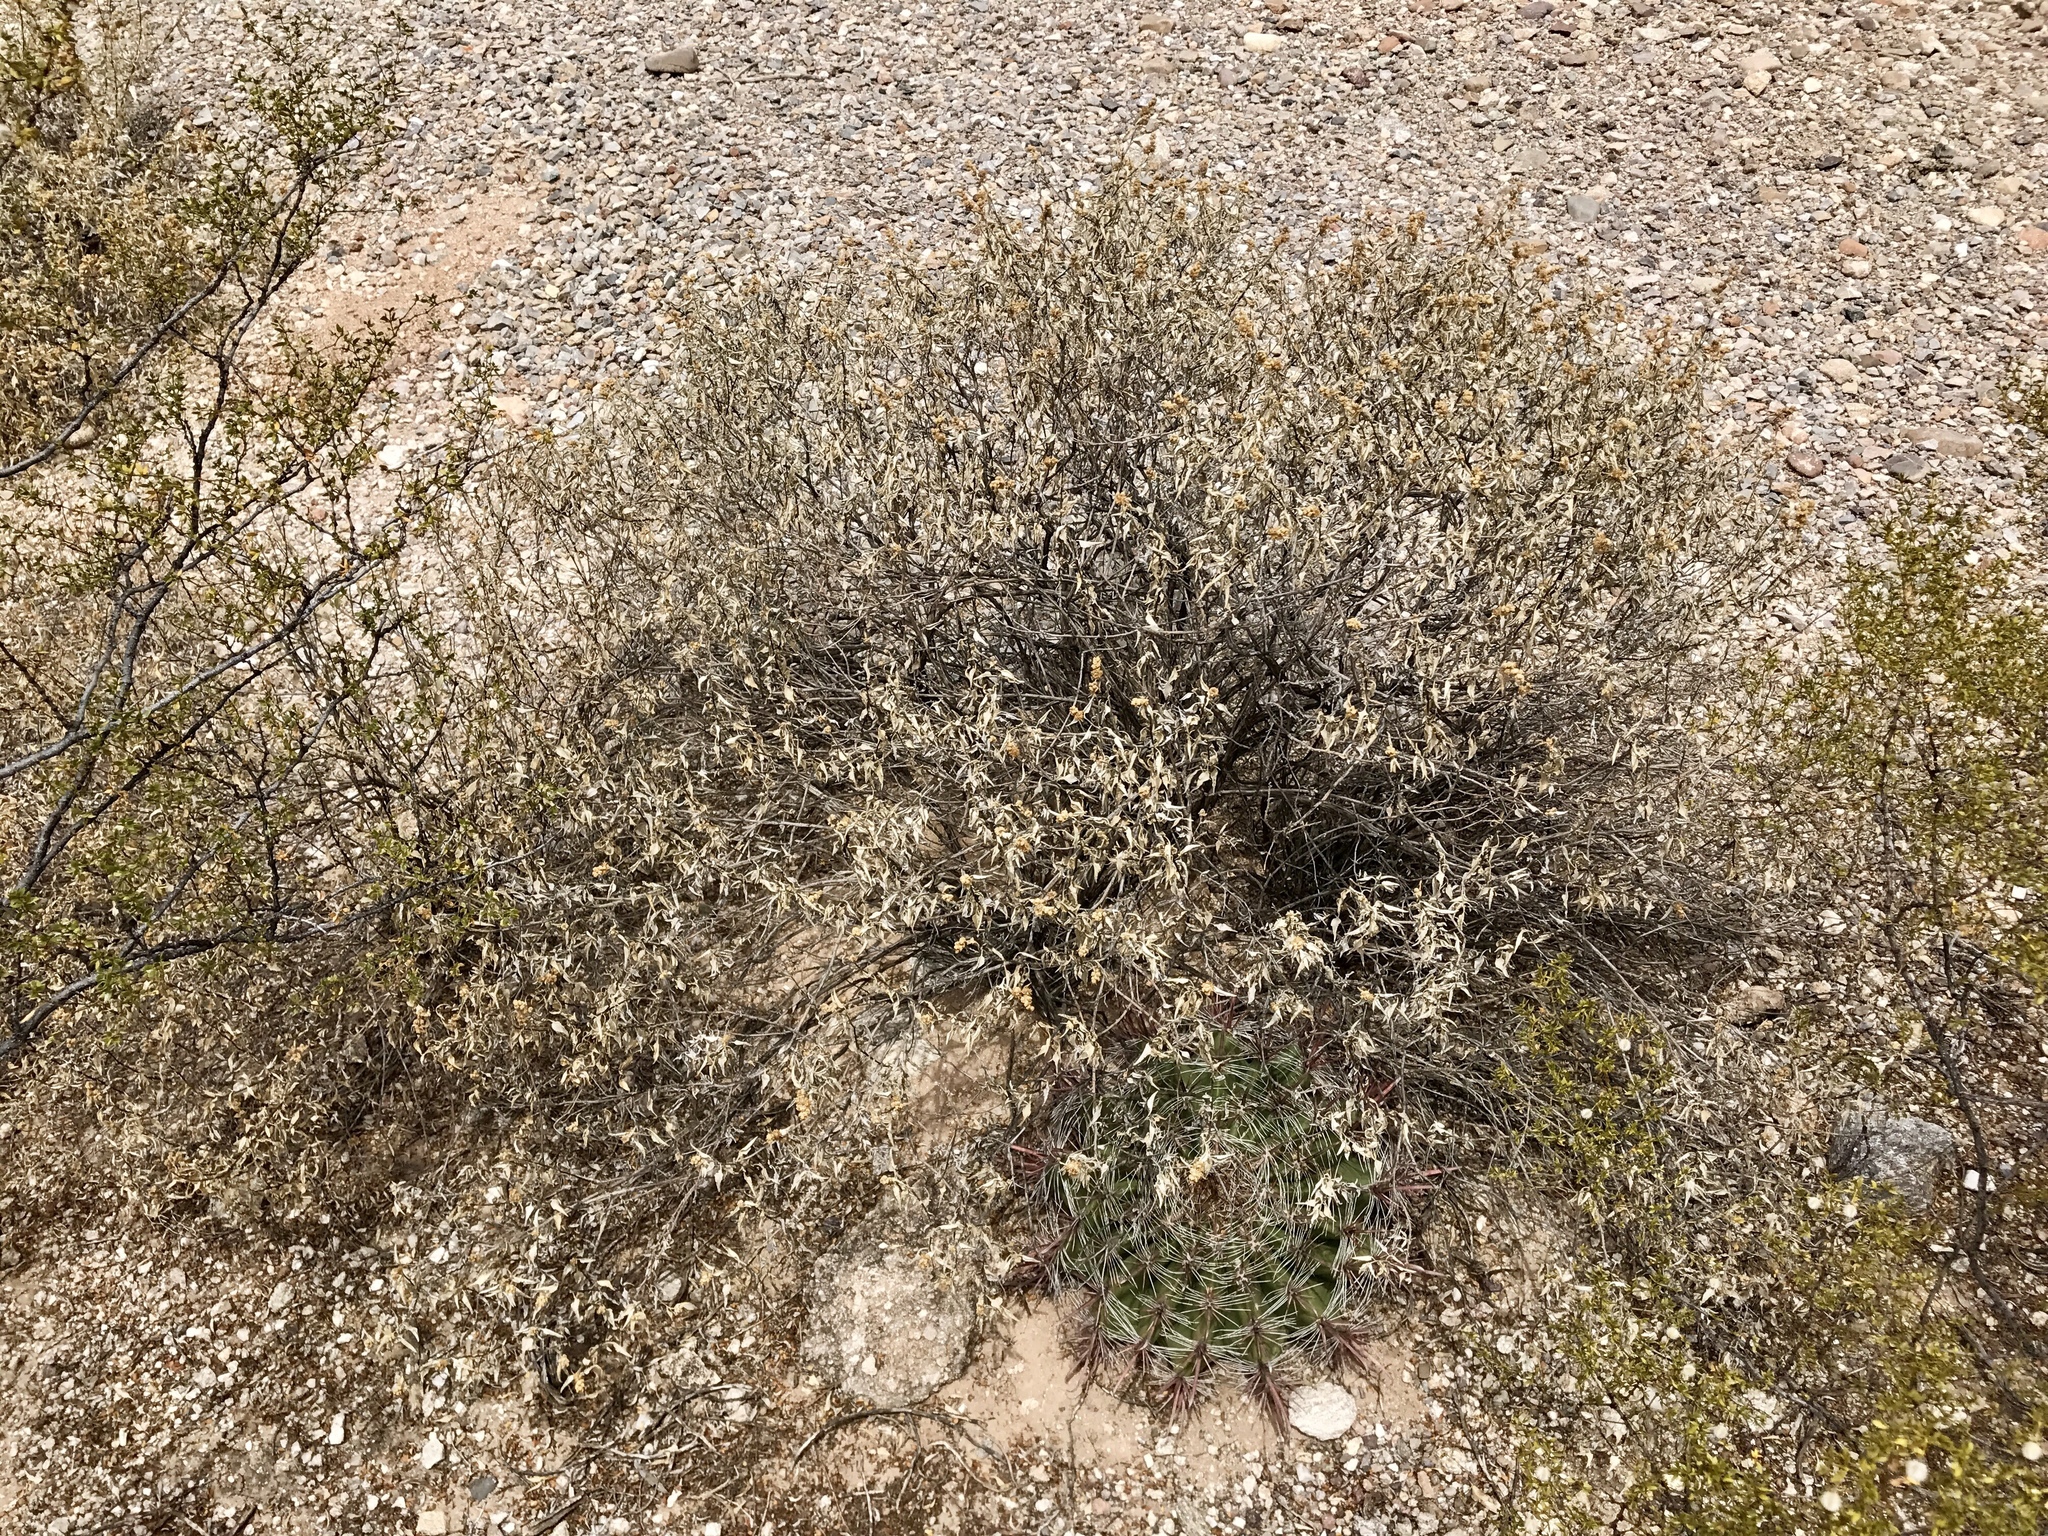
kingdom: Plantae
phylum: Tracheophyta
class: Magnoliopsida
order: Asterales
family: Asteraceae
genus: Ambrosia
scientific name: Ambrosia deltoidea
